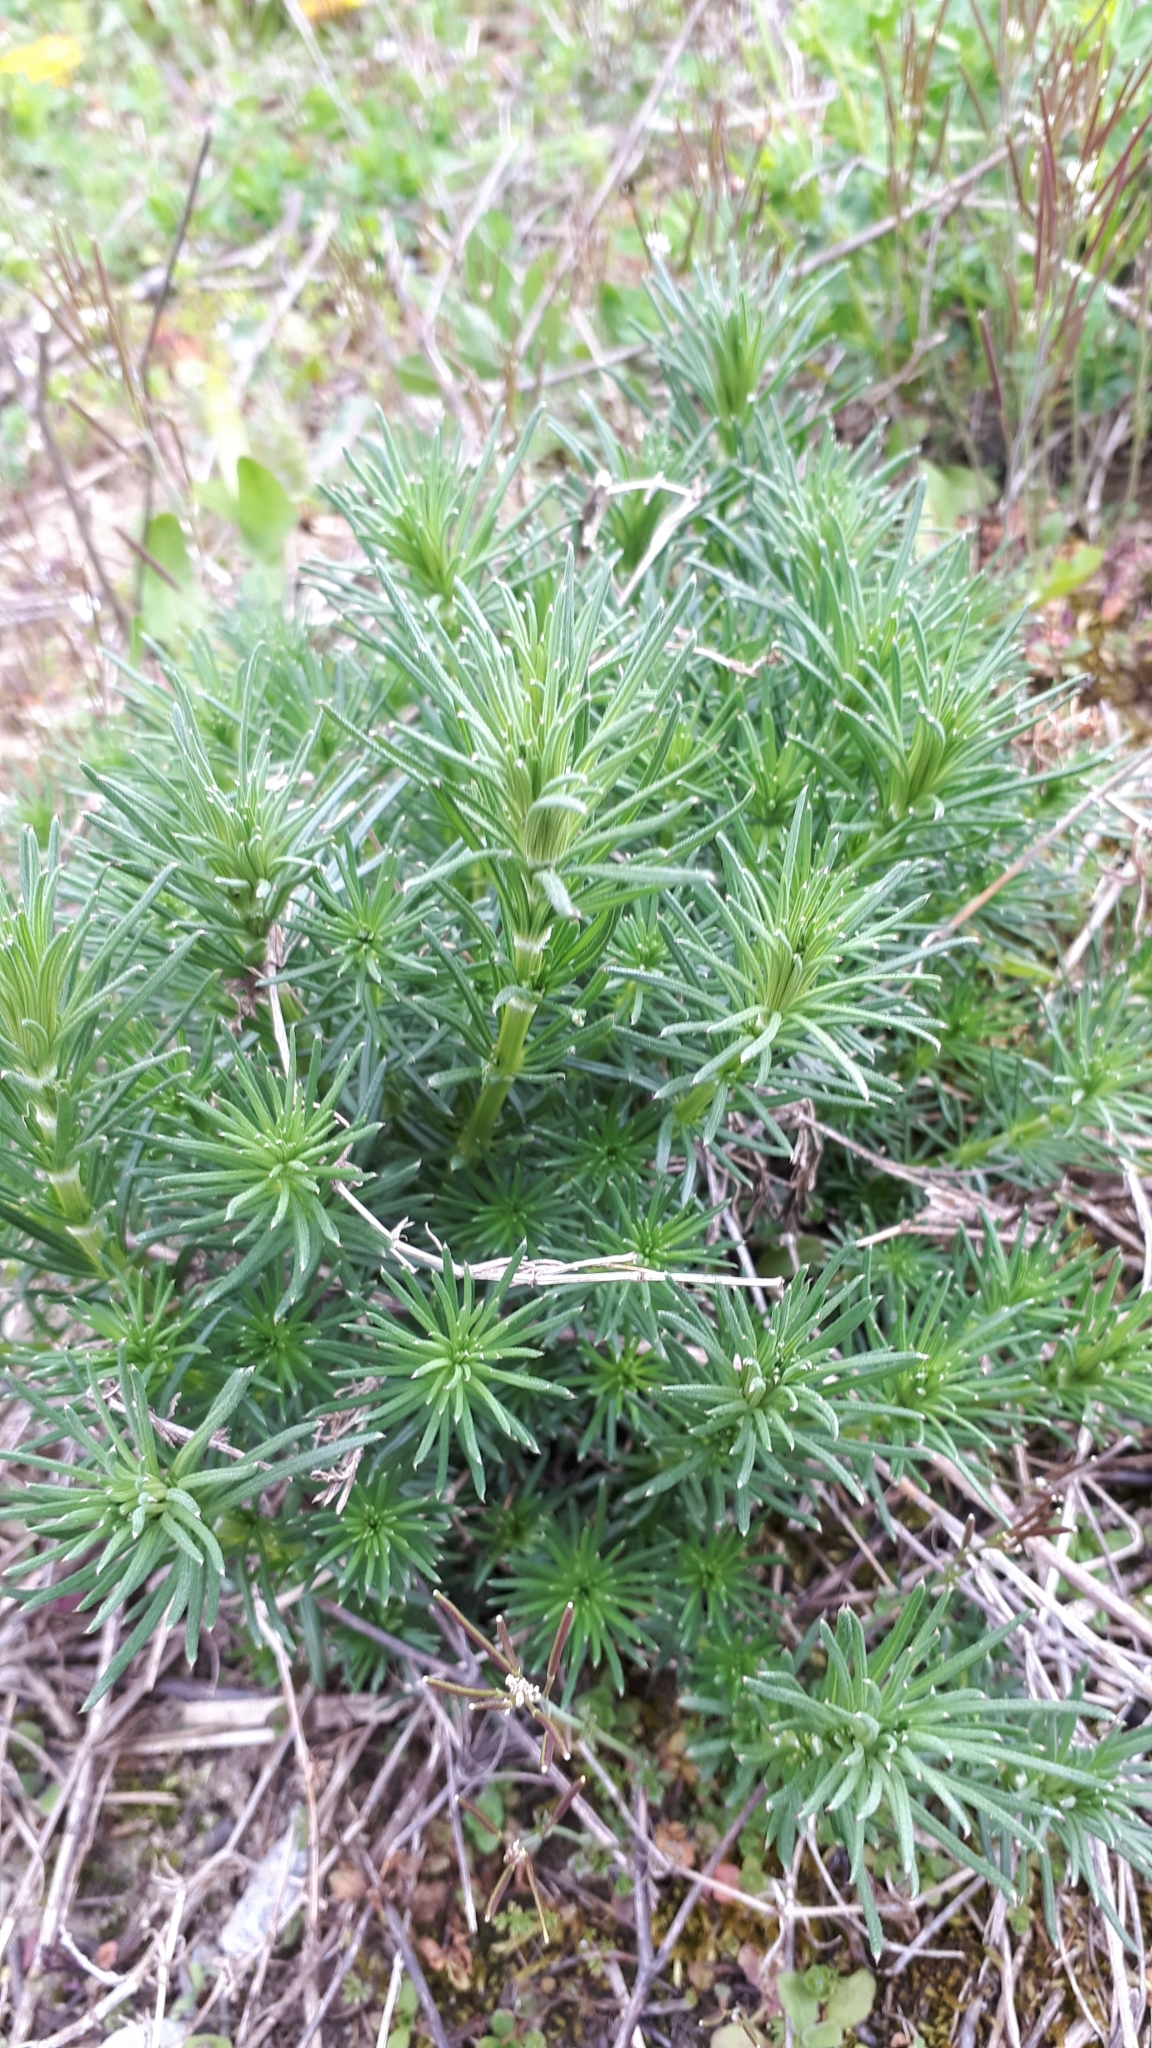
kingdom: Plantae
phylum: Tracheophyta
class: Magnoliopsida
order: Gentianales
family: Rubiaceae
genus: Galium
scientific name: Galium verum
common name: Lady's bedstraw
